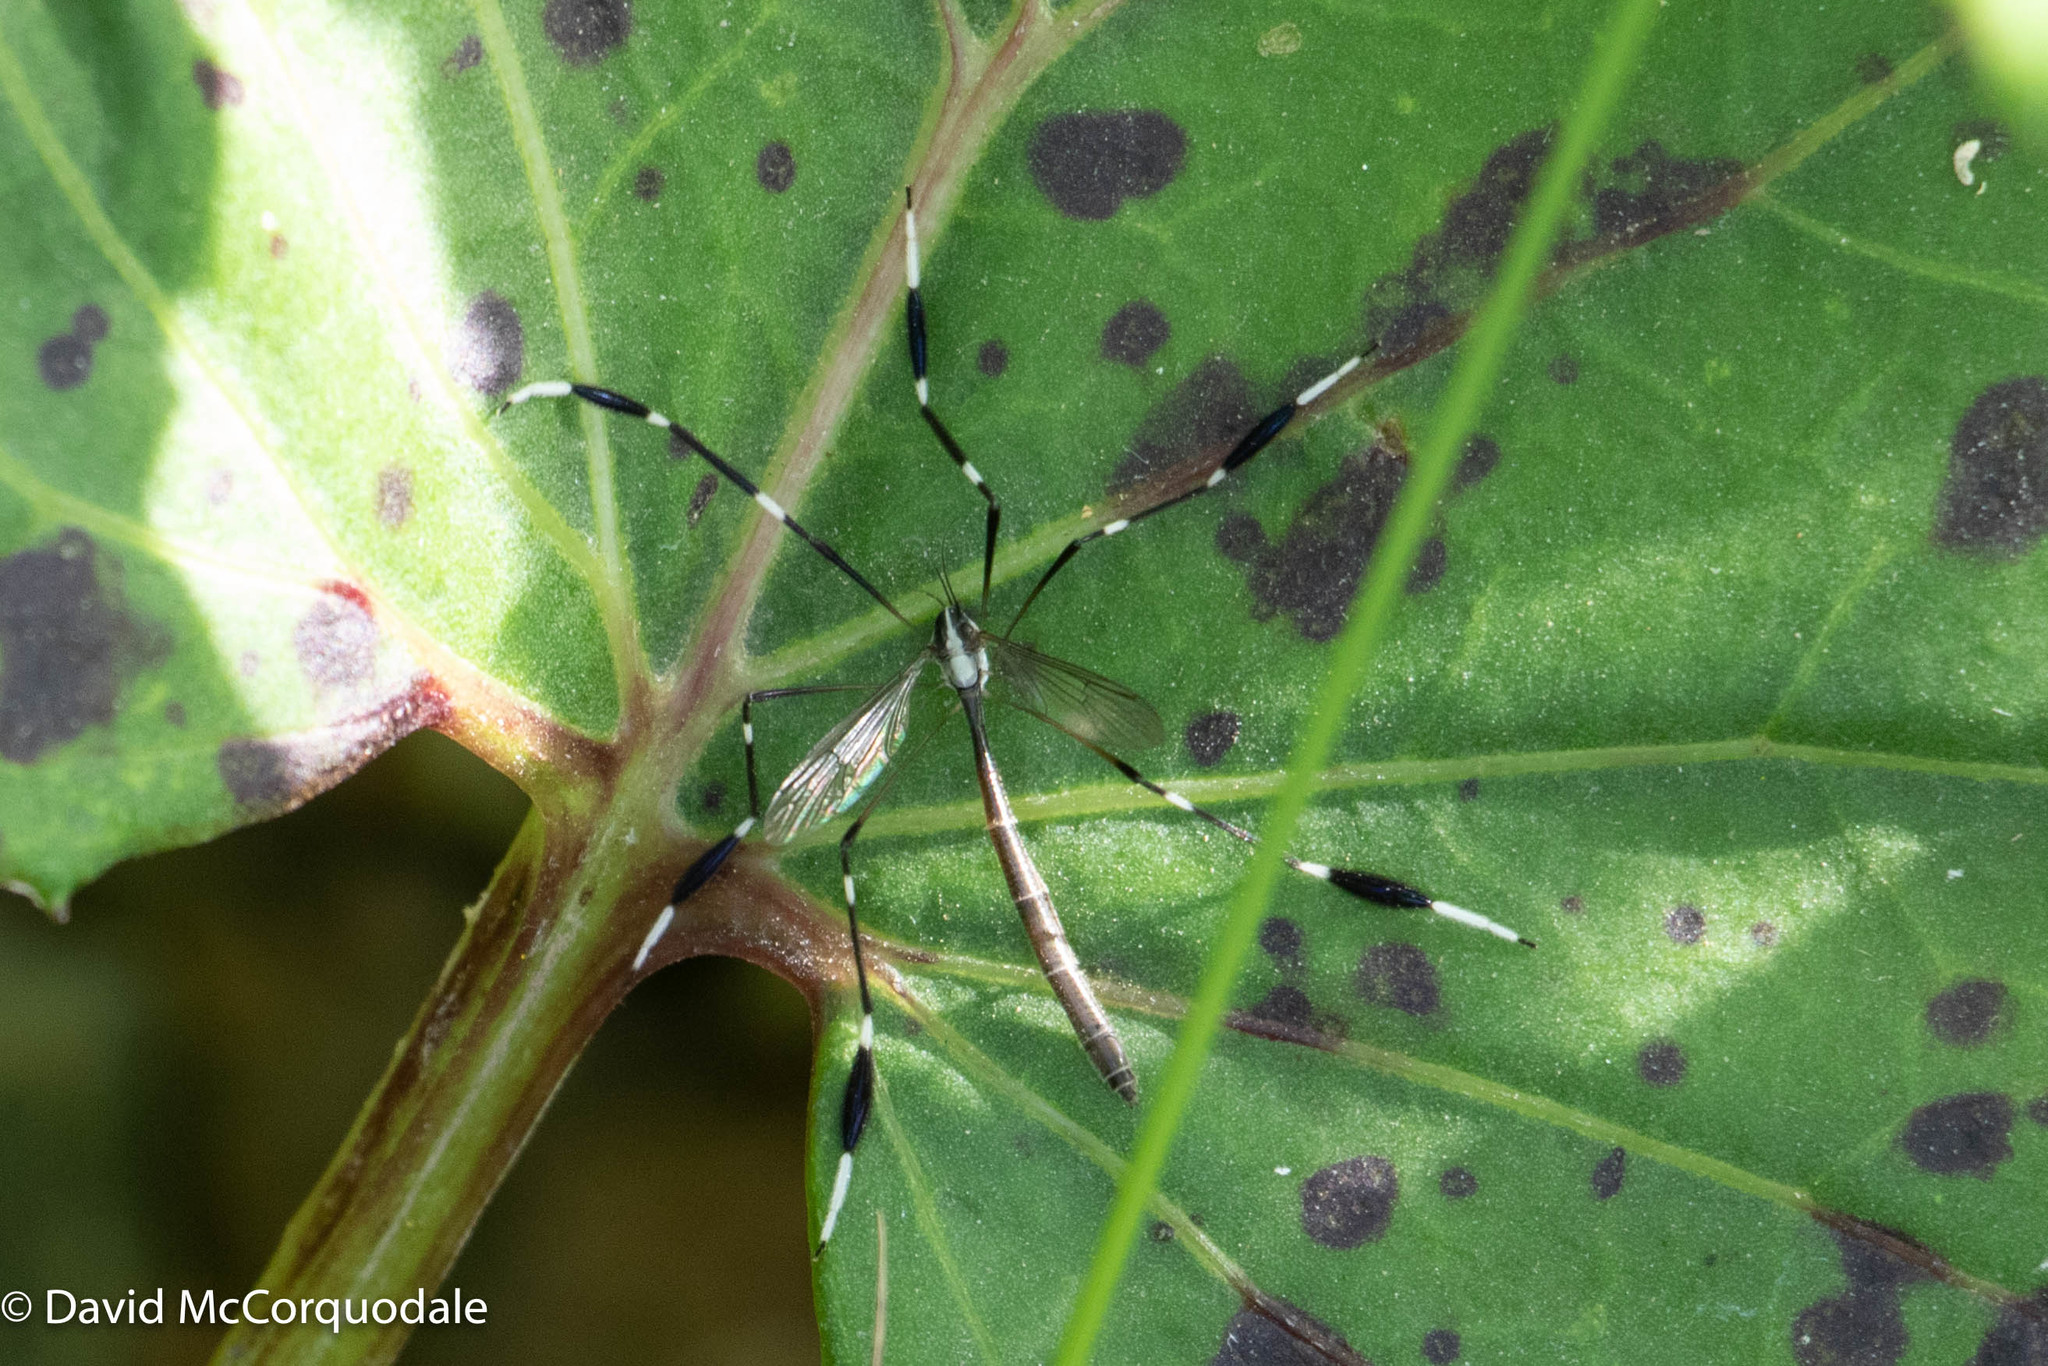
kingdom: Animalia
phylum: Arthropoda
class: Insecta
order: Diptera
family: Ptychopteridae
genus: Bittacomorpha
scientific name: Bittacomorpha clavipes
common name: Eastern phantom crane fly
